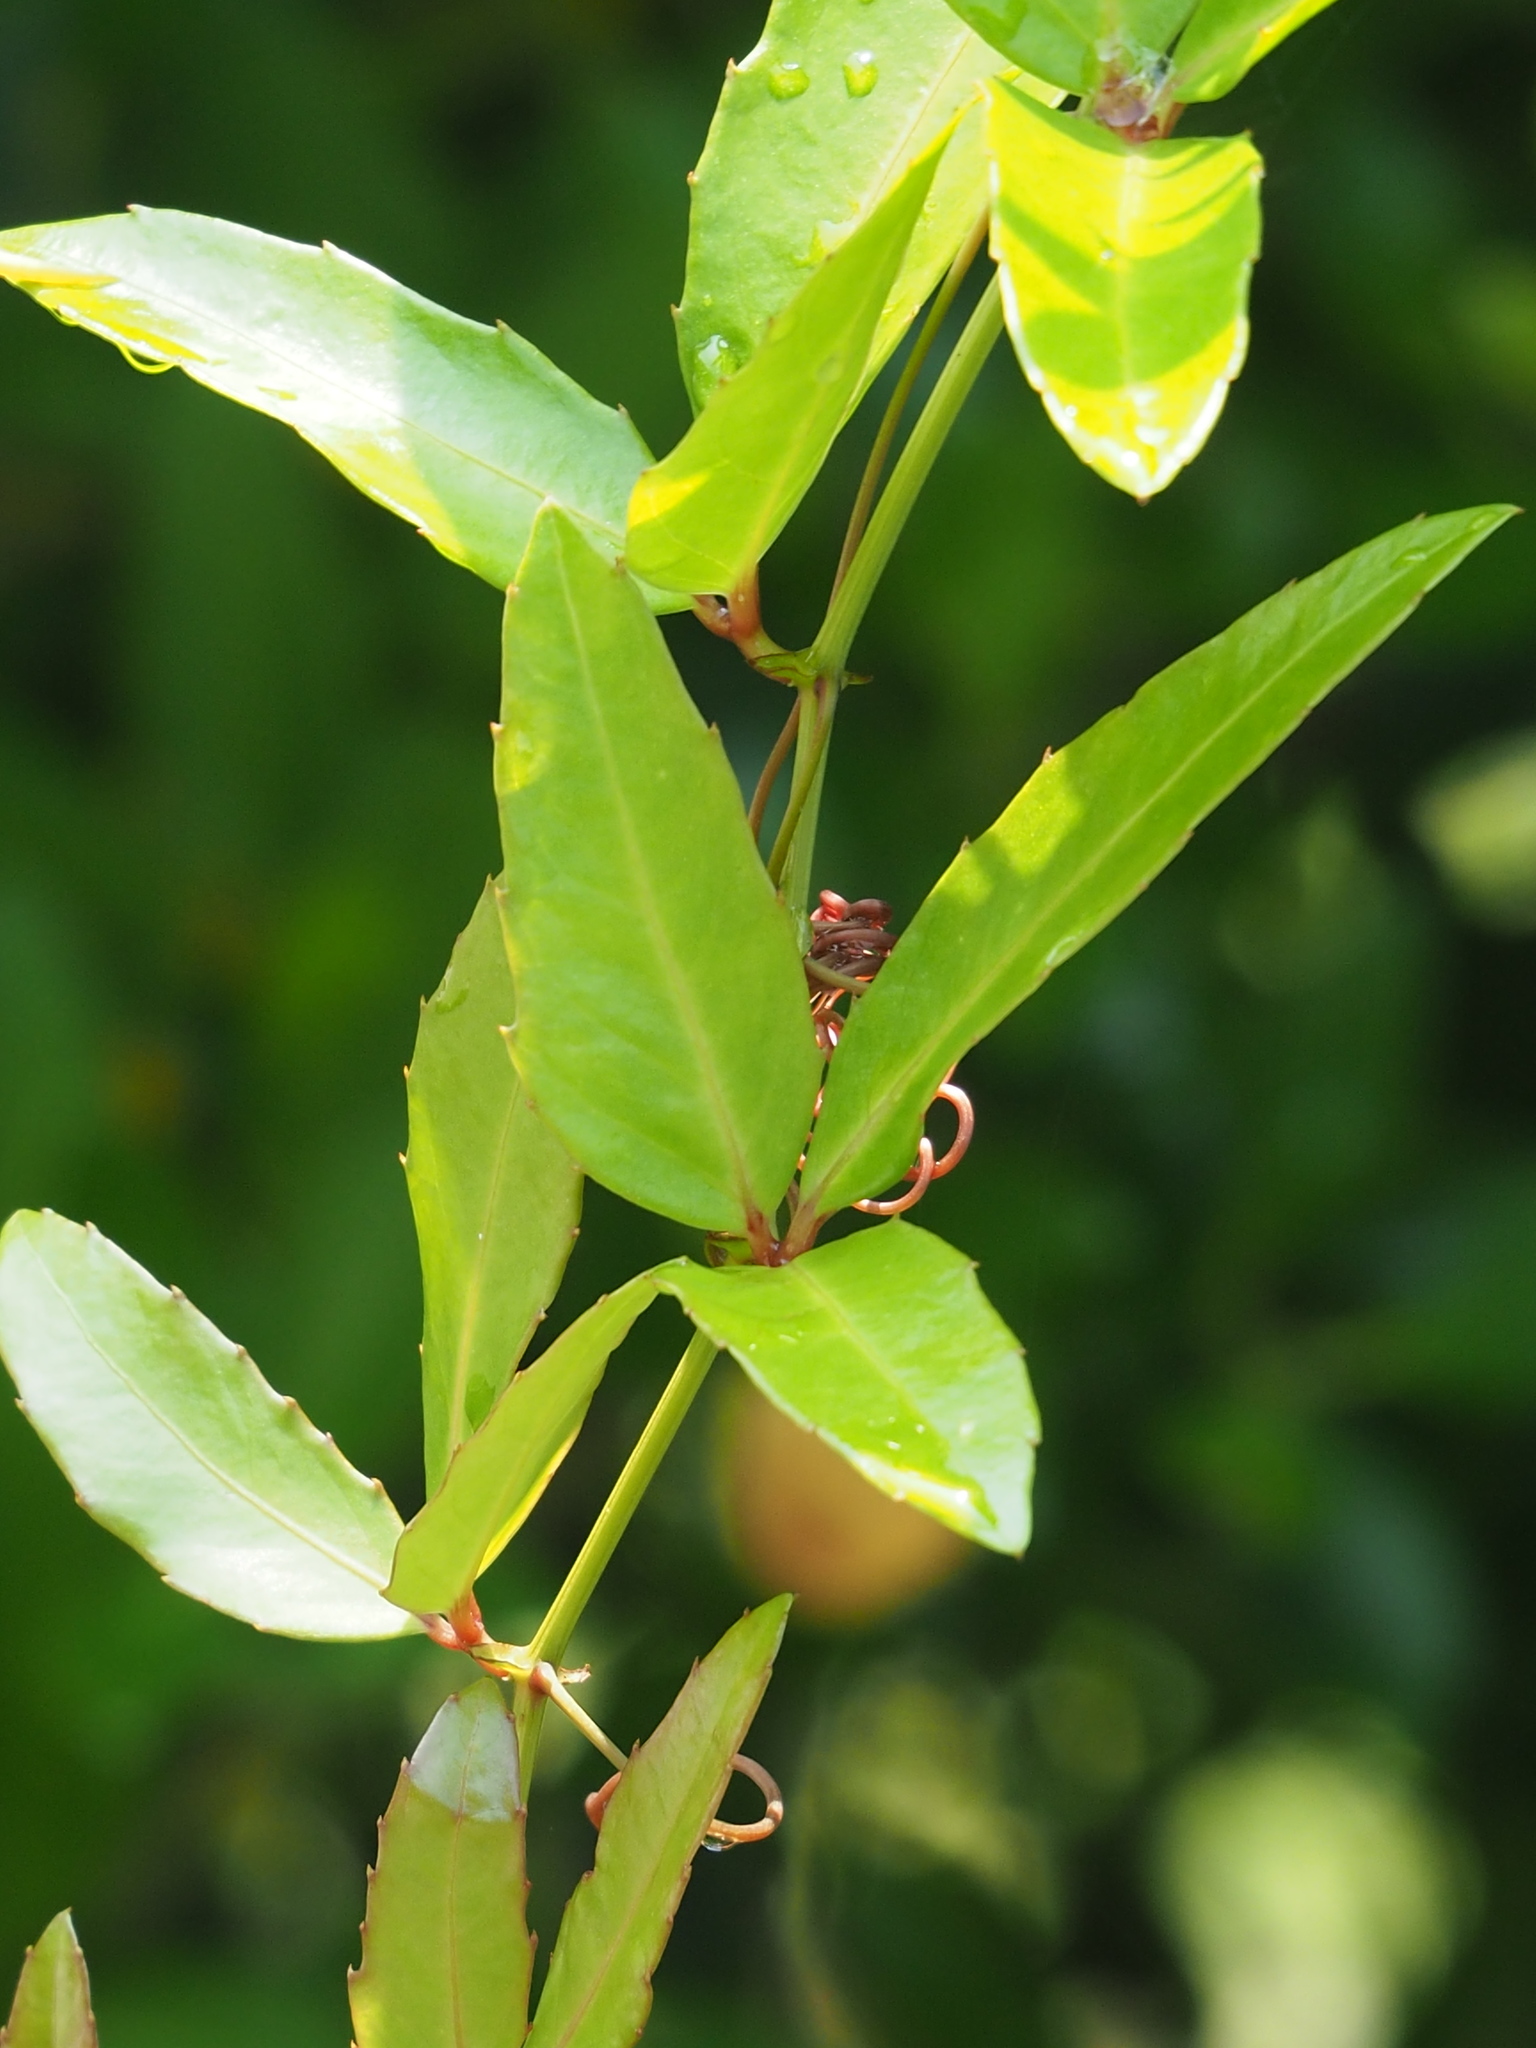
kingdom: Plantae
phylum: Tracheophyta
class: Magnoliopsida
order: Vitales
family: Vitaceae
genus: Tetrastigma
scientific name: Tetrastigma formosanum
